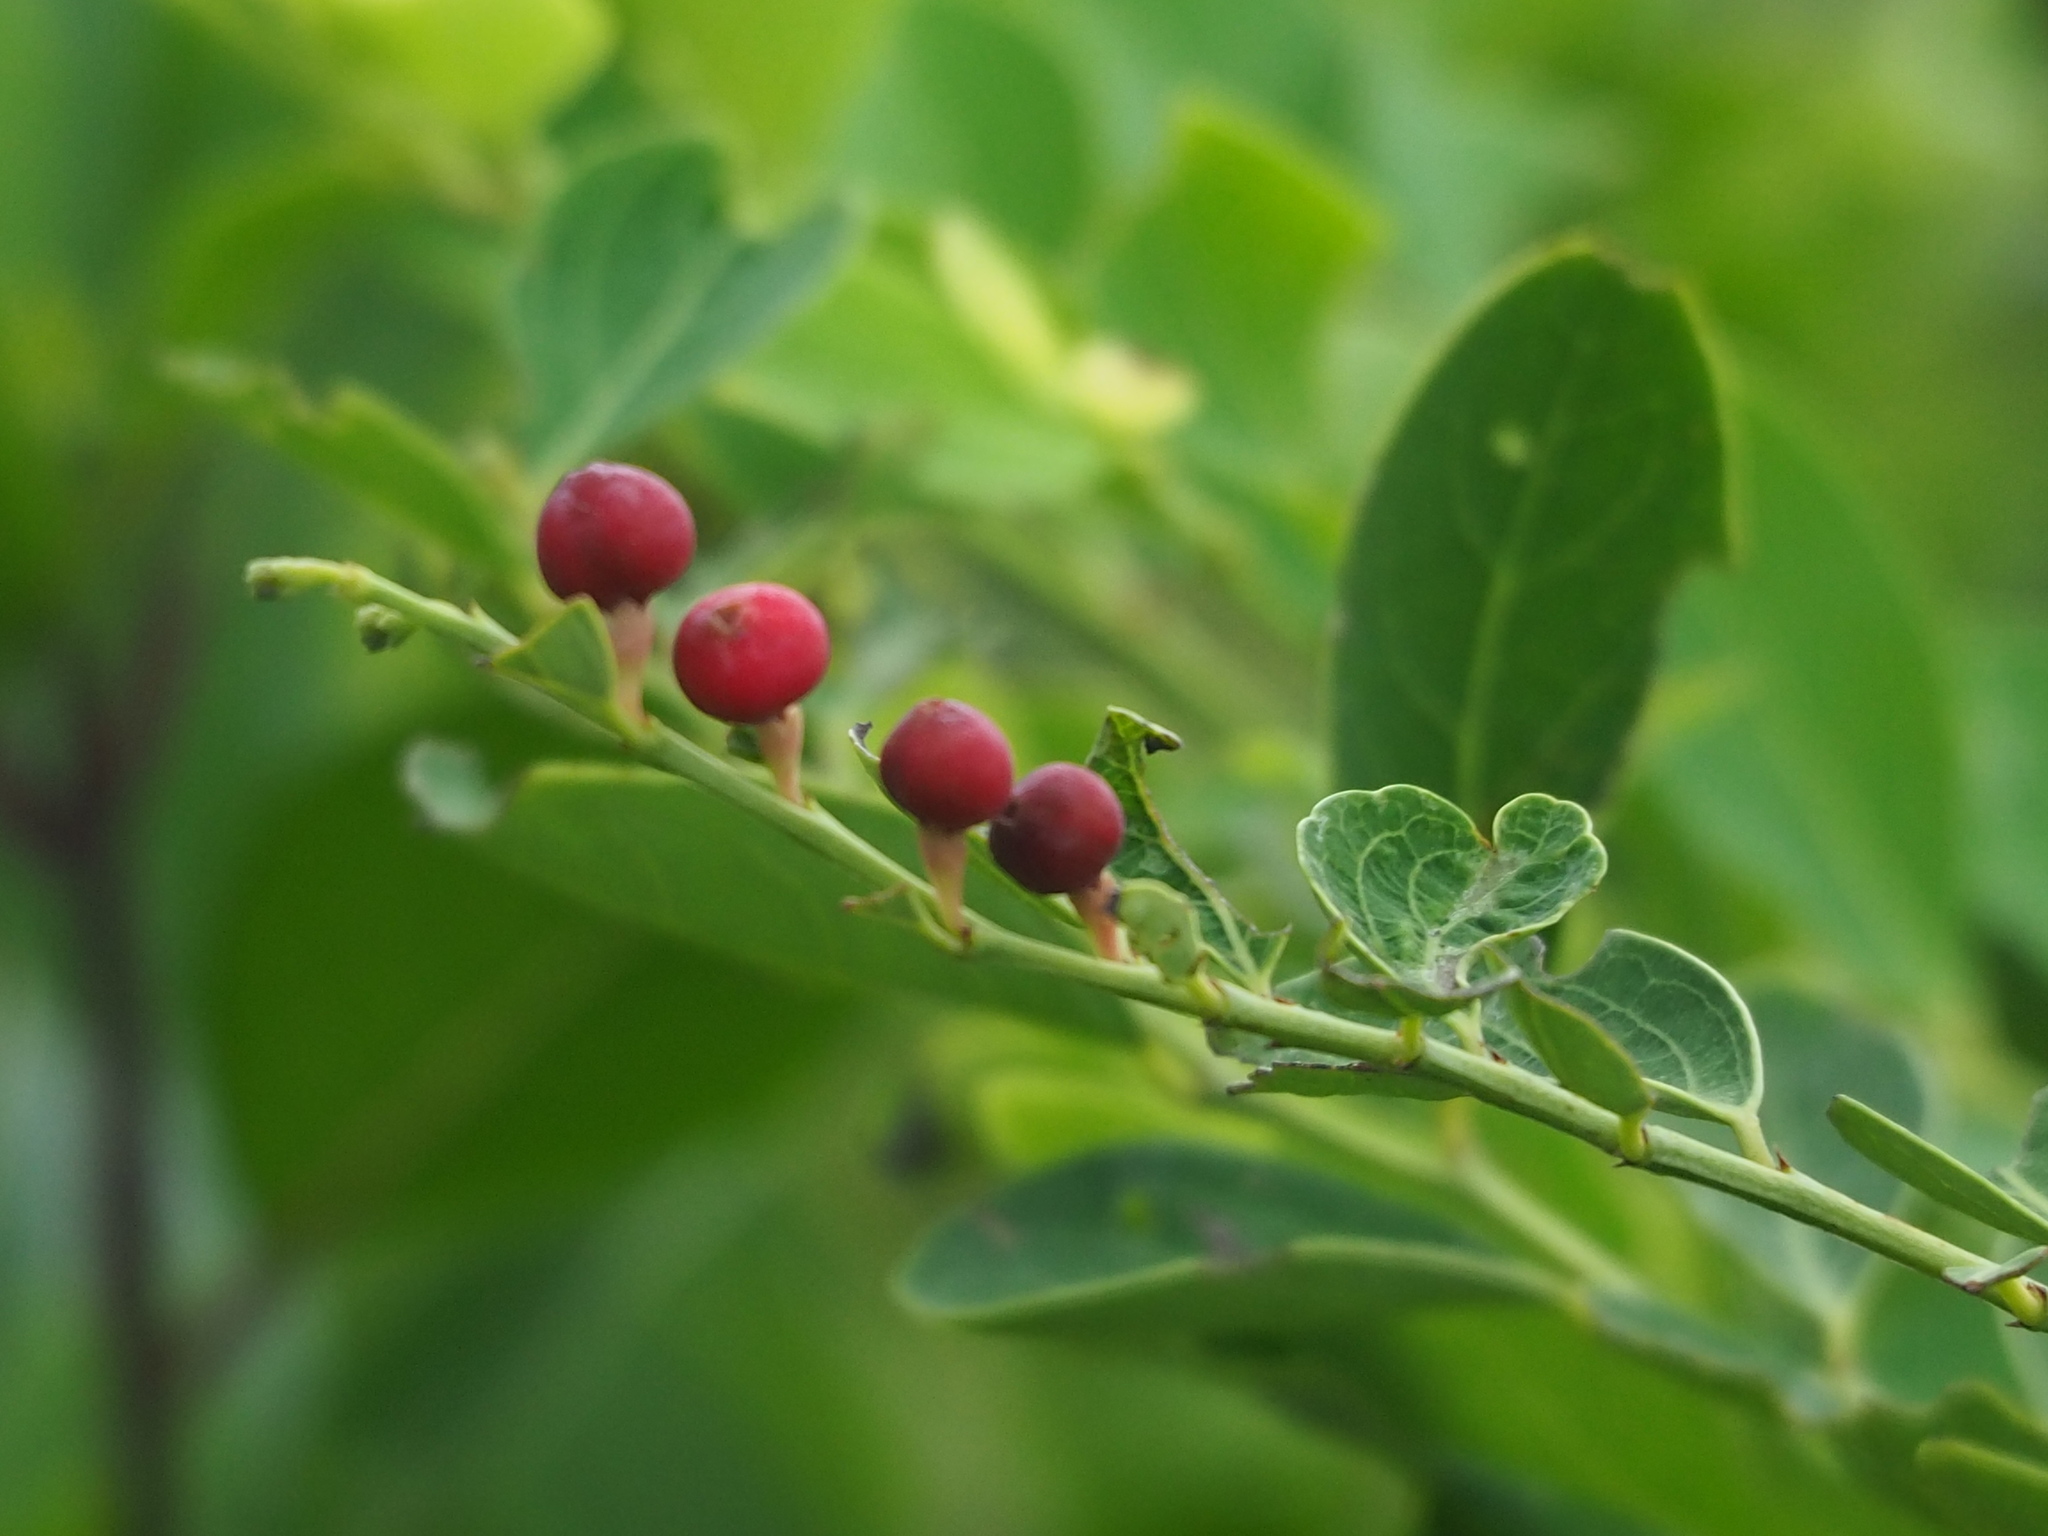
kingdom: Plantae
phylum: Tracheophyta
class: Magnoliopsida
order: Malpighiales
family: Phyllanthaceae
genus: Breynia
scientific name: Breynia vitis-idaea
